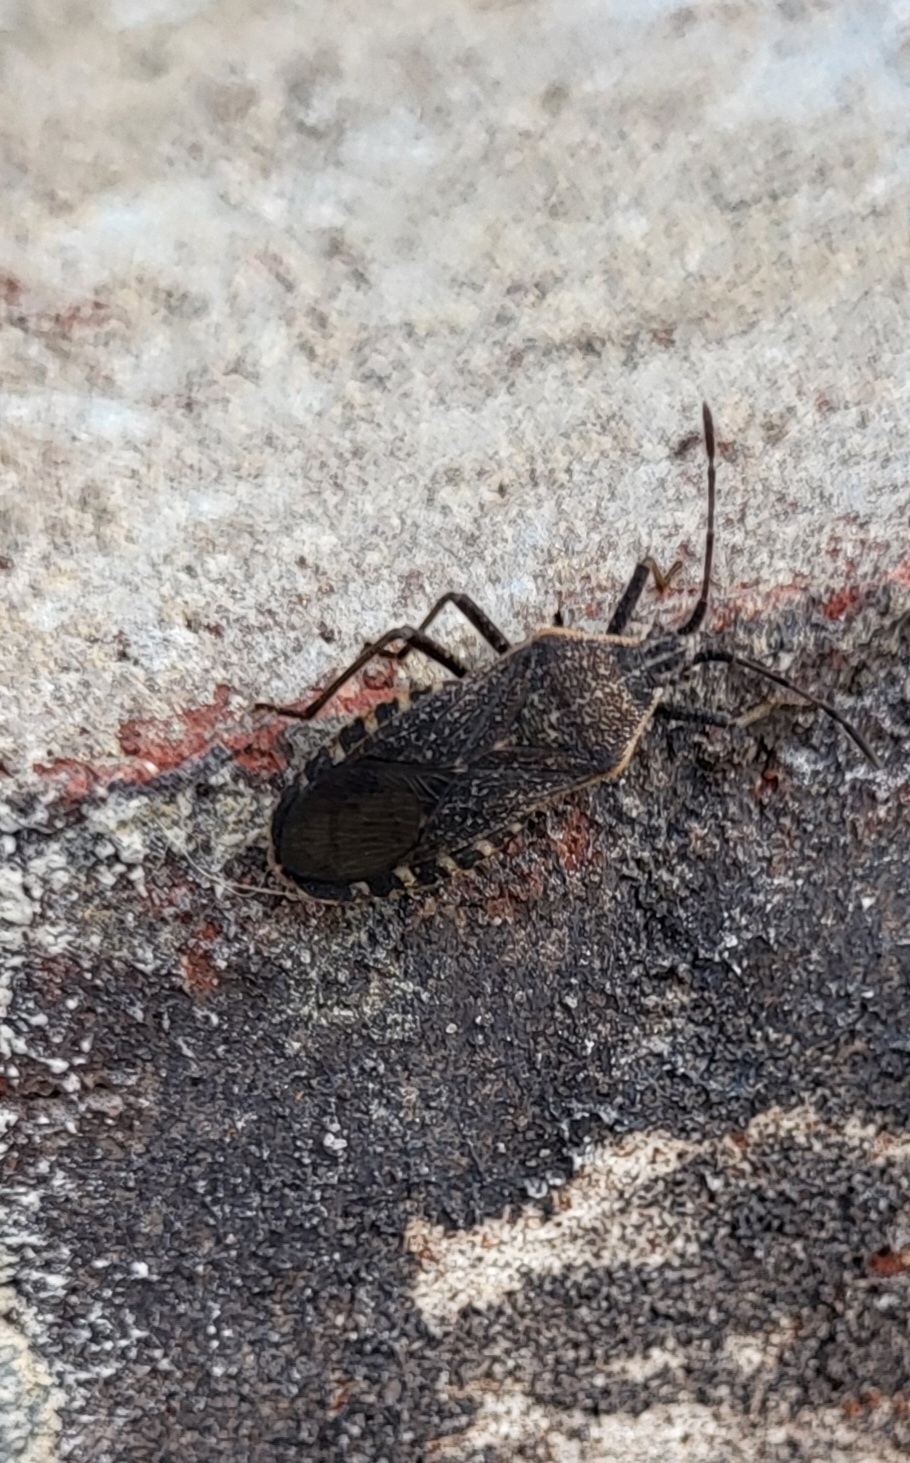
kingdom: Animalia
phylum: Arthropoda
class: Insecta
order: Hemiptera
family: Coreidae
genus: Anasa
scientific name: Anasa tristis
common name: Squash bug
